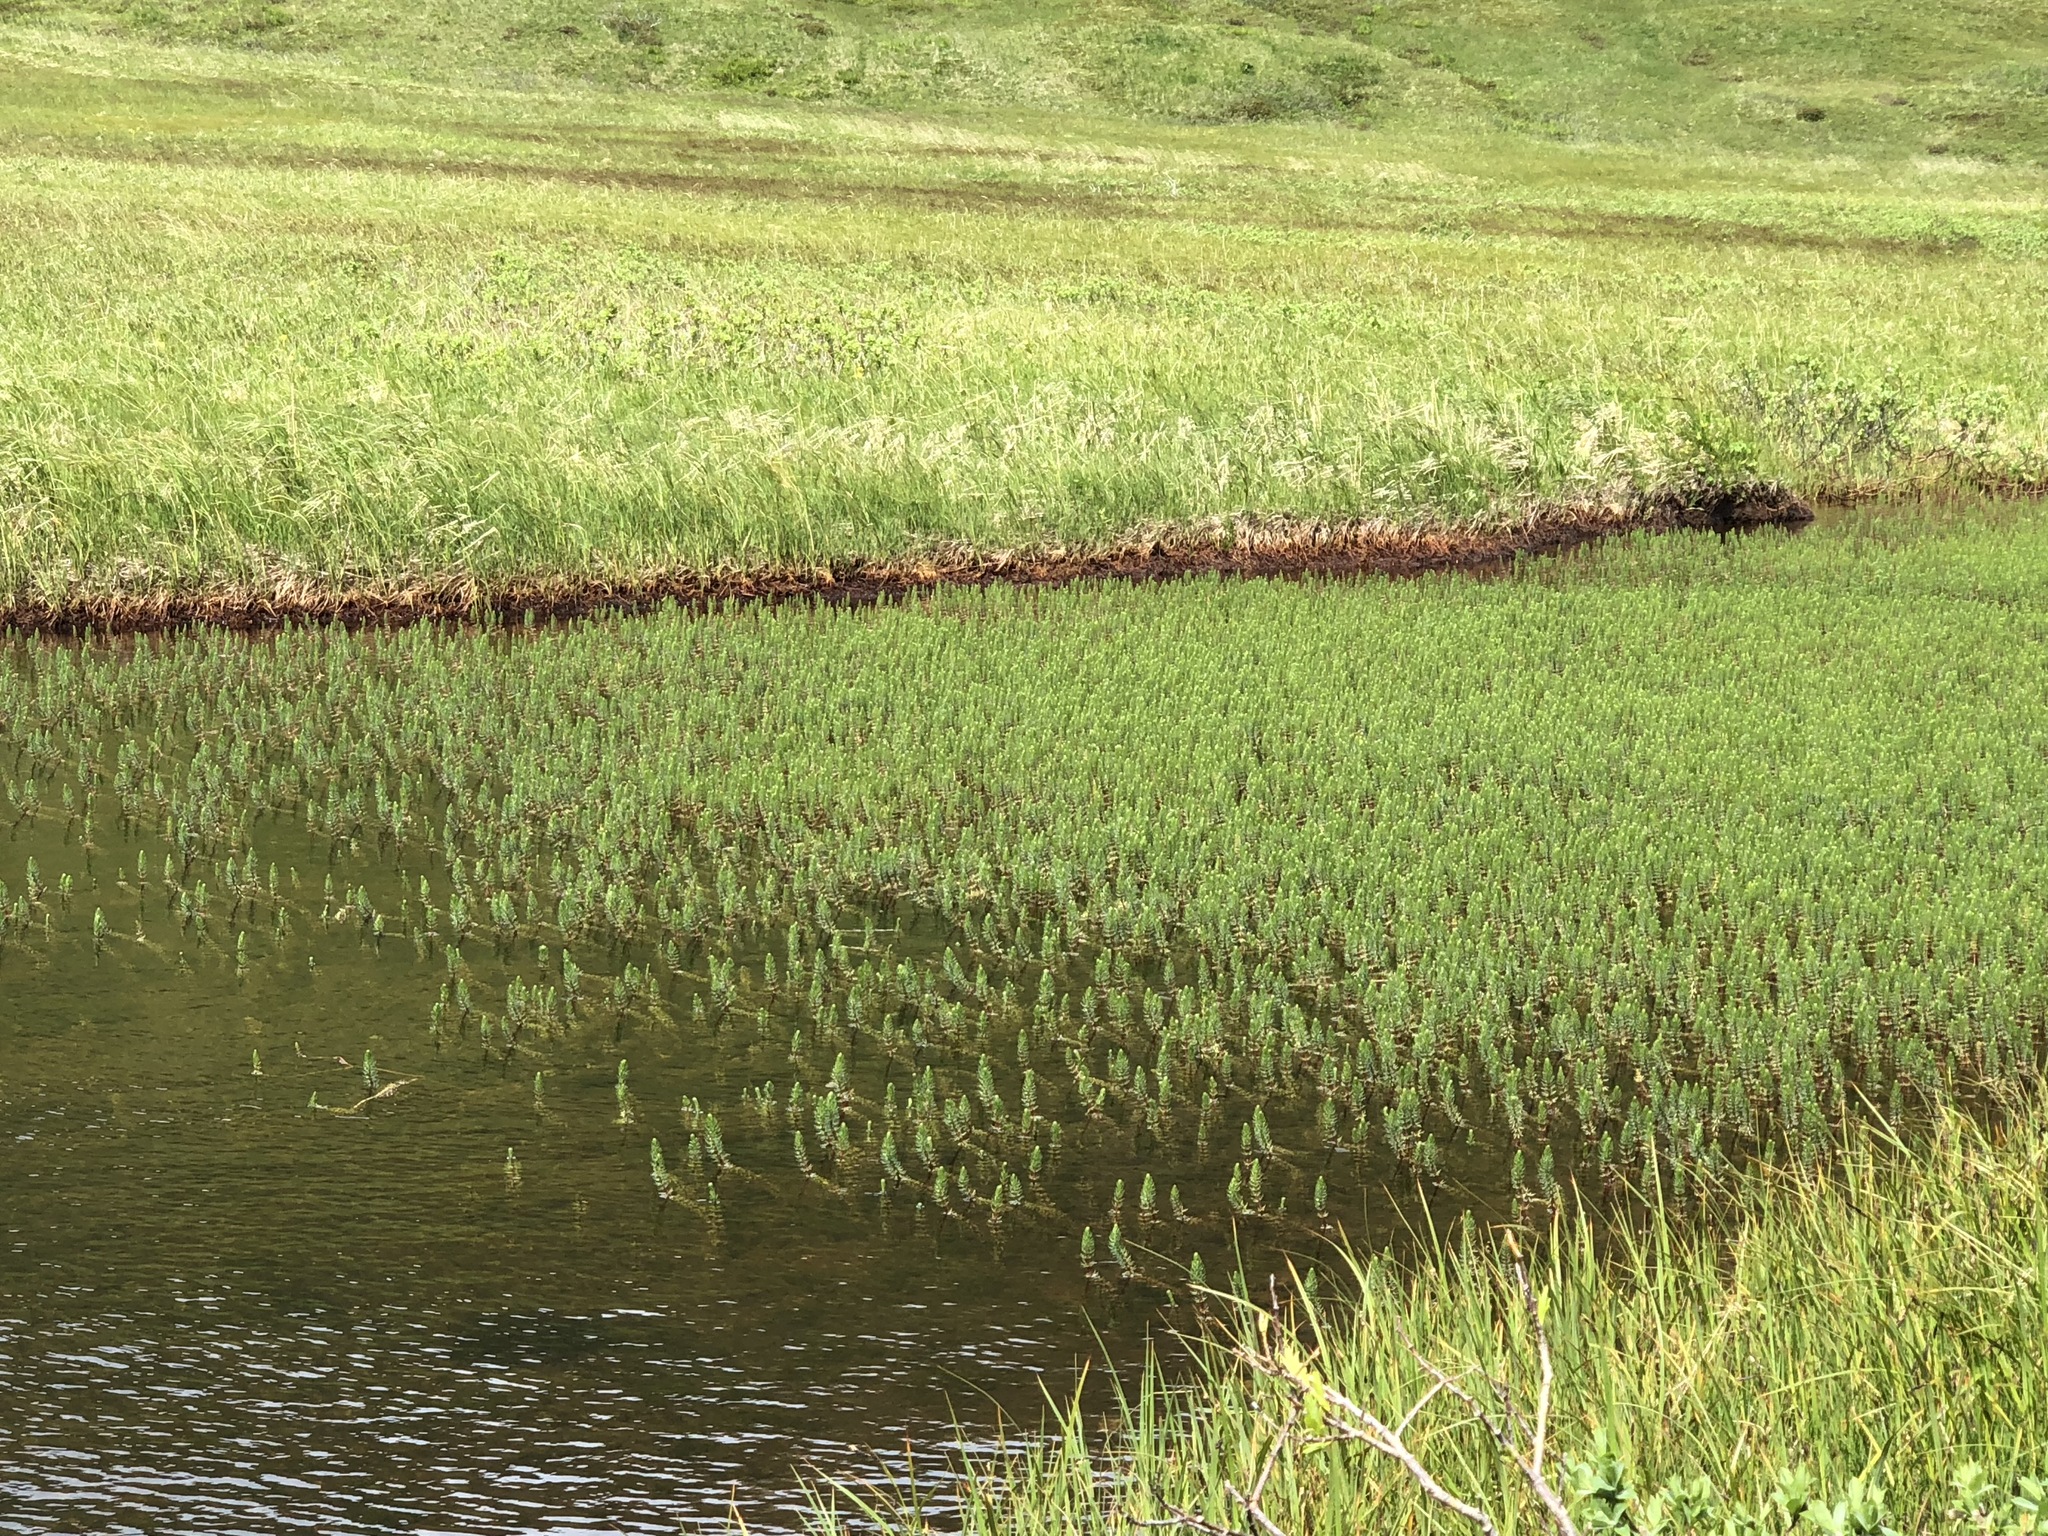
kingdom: Plantae
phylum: Tracheophyta
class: Magnoliopsida
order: Lamiales
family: Plantaginaceae
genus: Hippuris
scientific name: Hippuris vulgaris
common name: Mare's-tail
